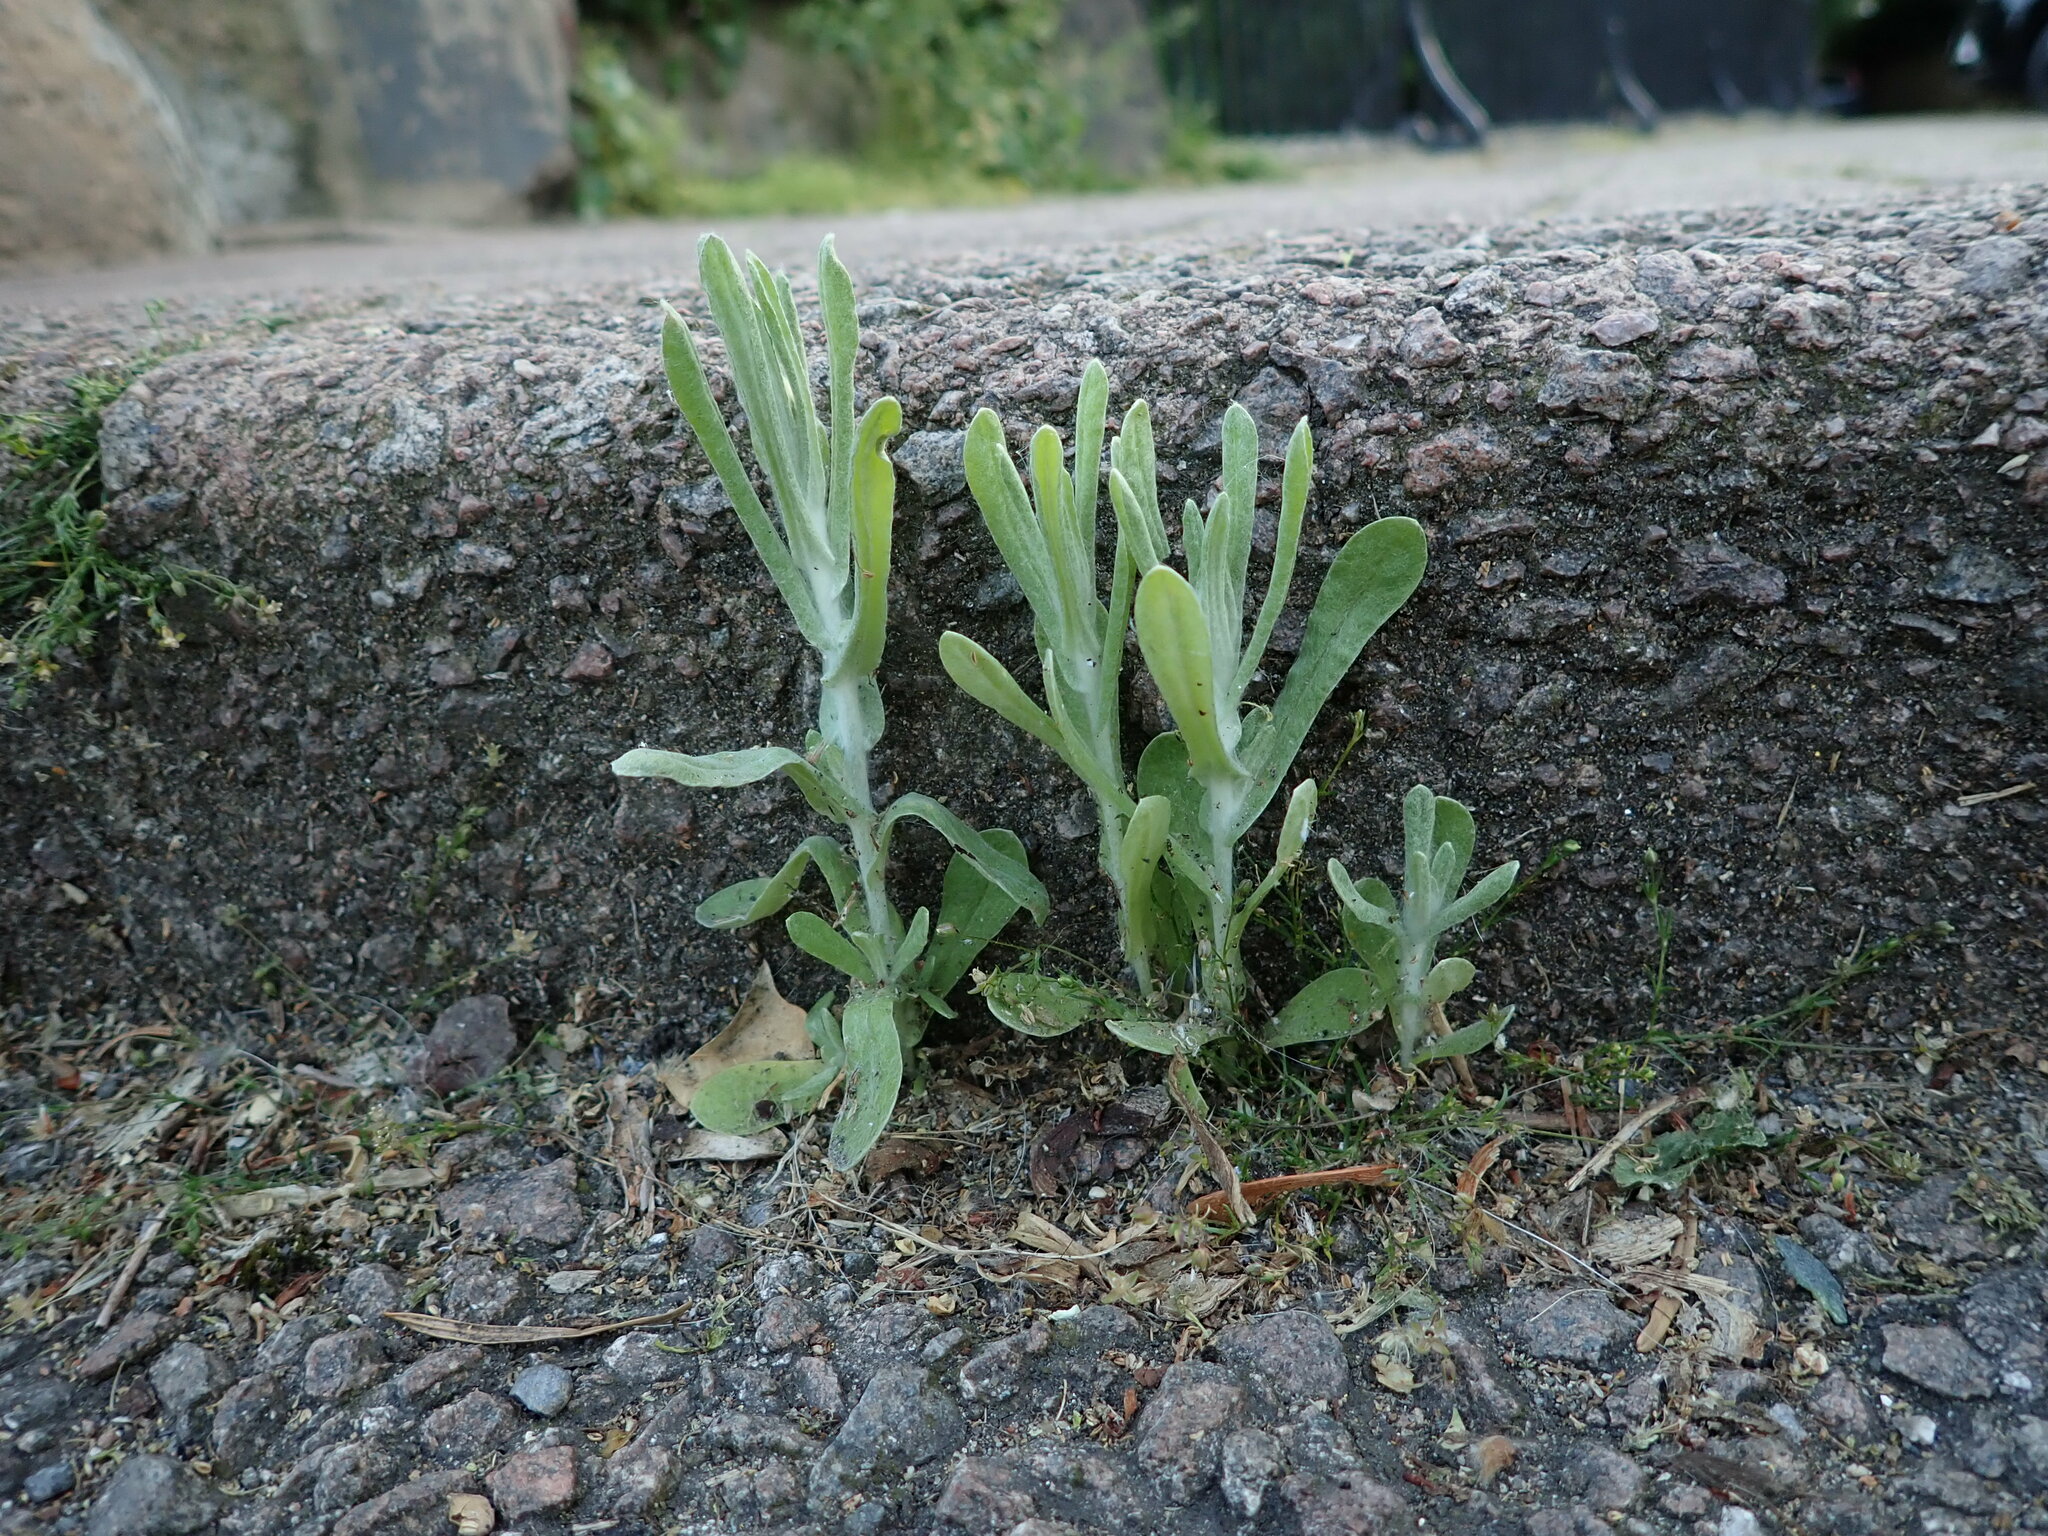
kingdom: Plantae
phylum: Tracheophyta
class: Magnoliopsida
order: Asterales
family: Asteraceae
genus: Helichrysum
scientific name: Helichrysum luteoalbum
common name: Daisy
